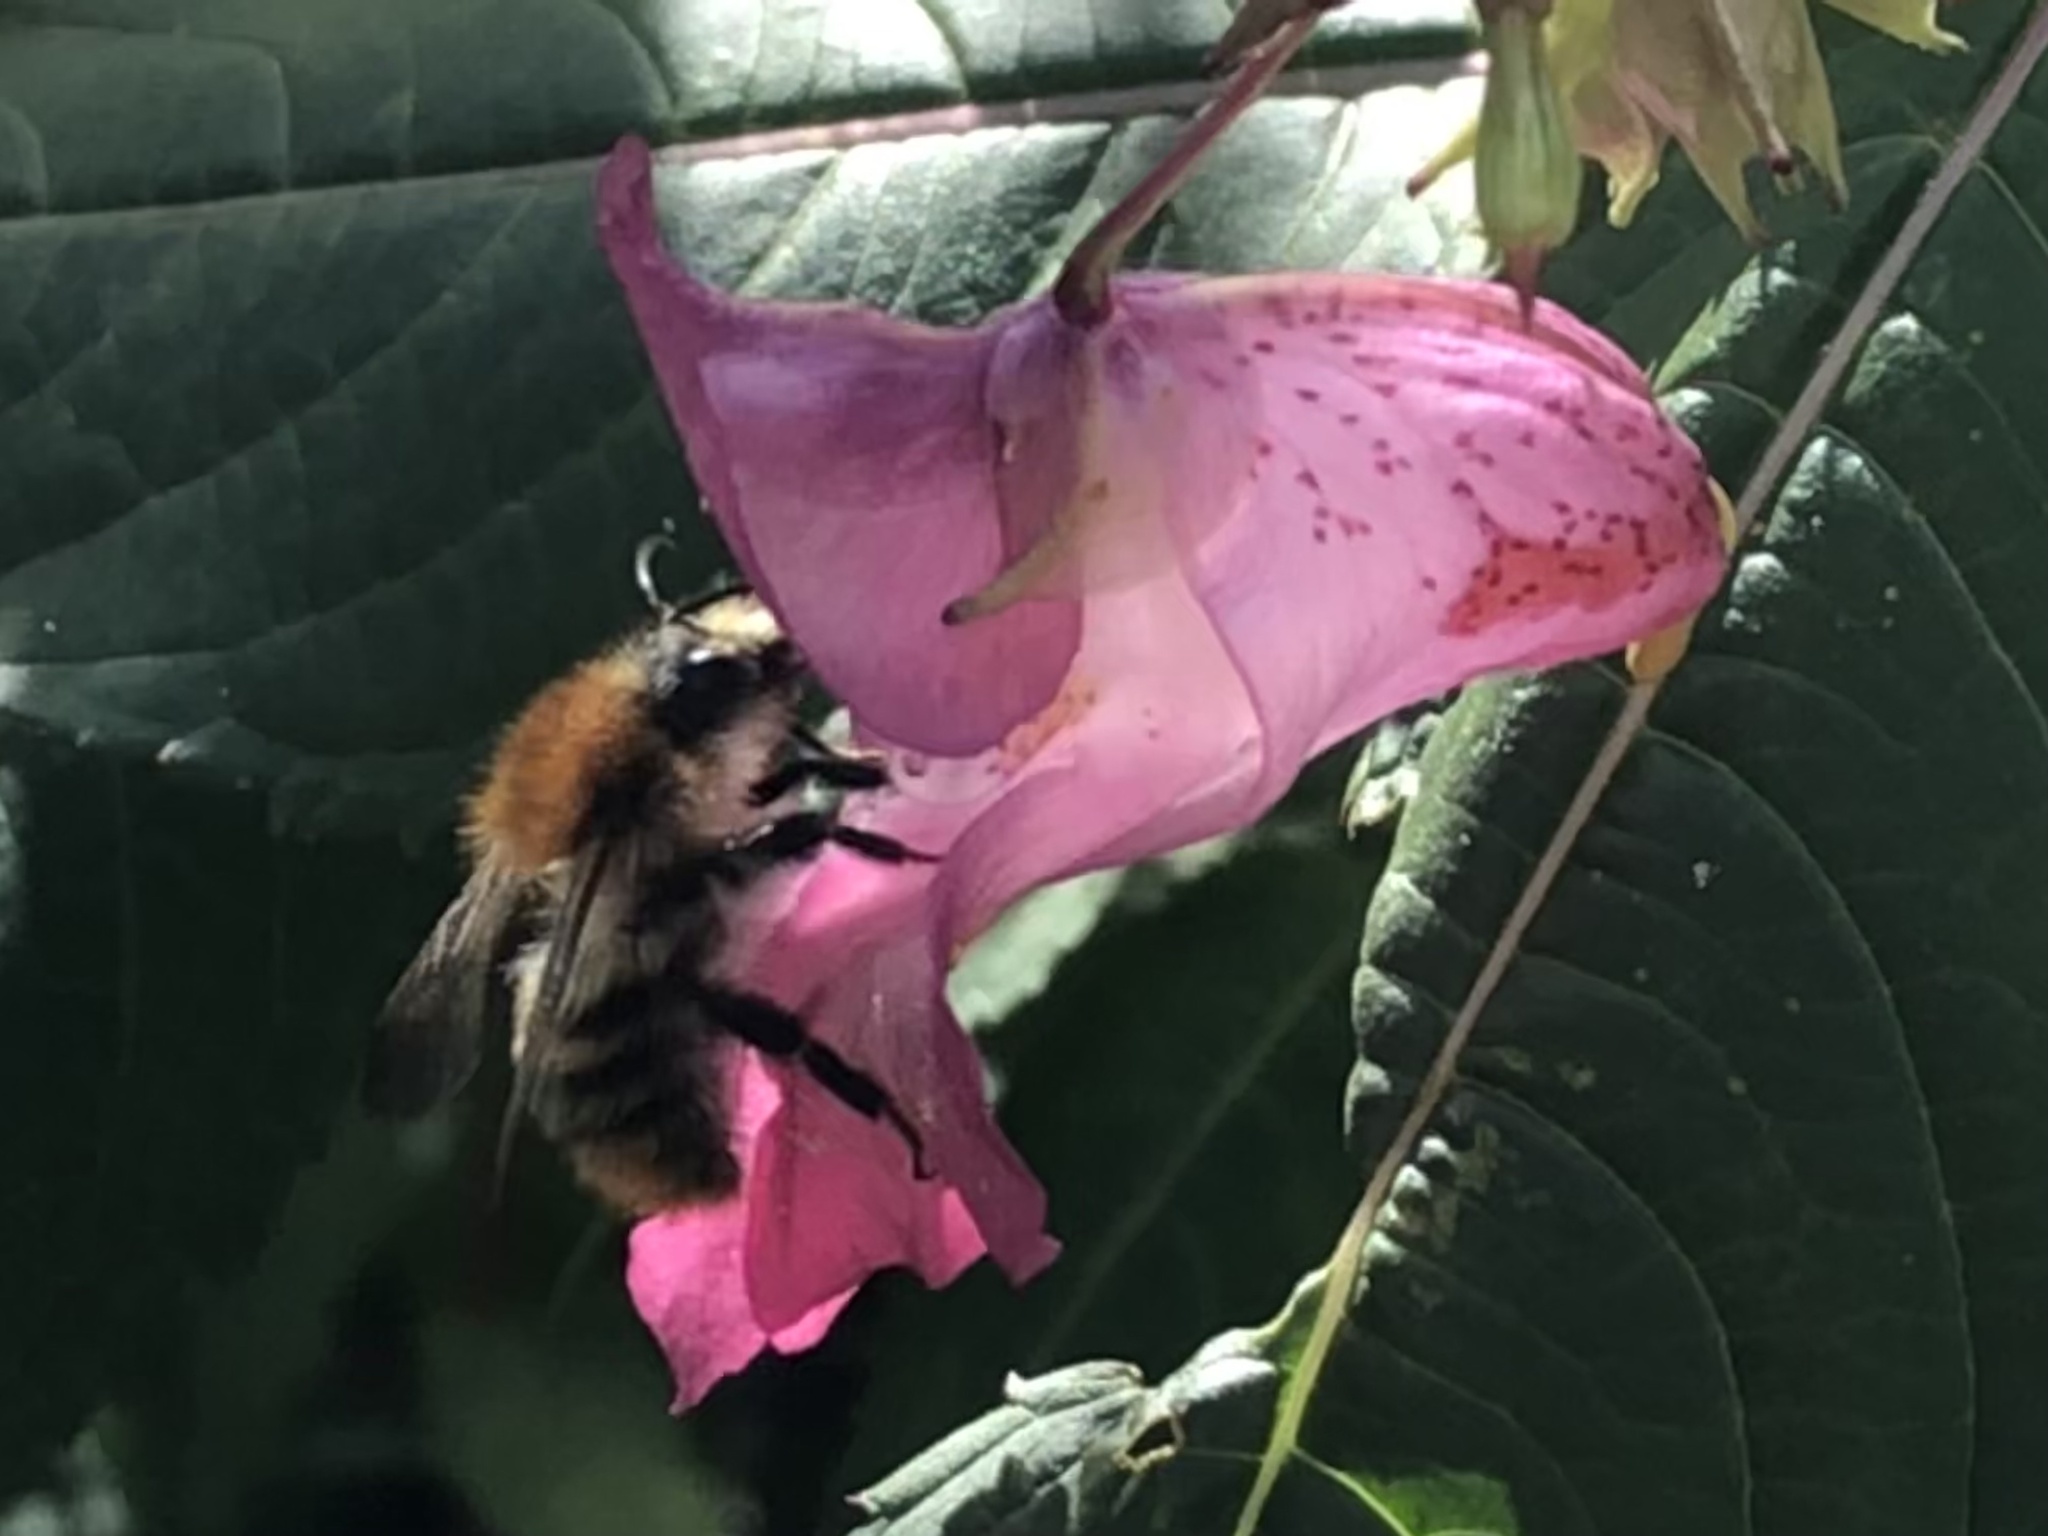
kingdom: Animalia
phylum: Arthropoda
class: Insecta
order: Hymenoptera
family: Apidae
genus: Bombus
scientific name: Bombus pascuorum
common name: Common carder bee
